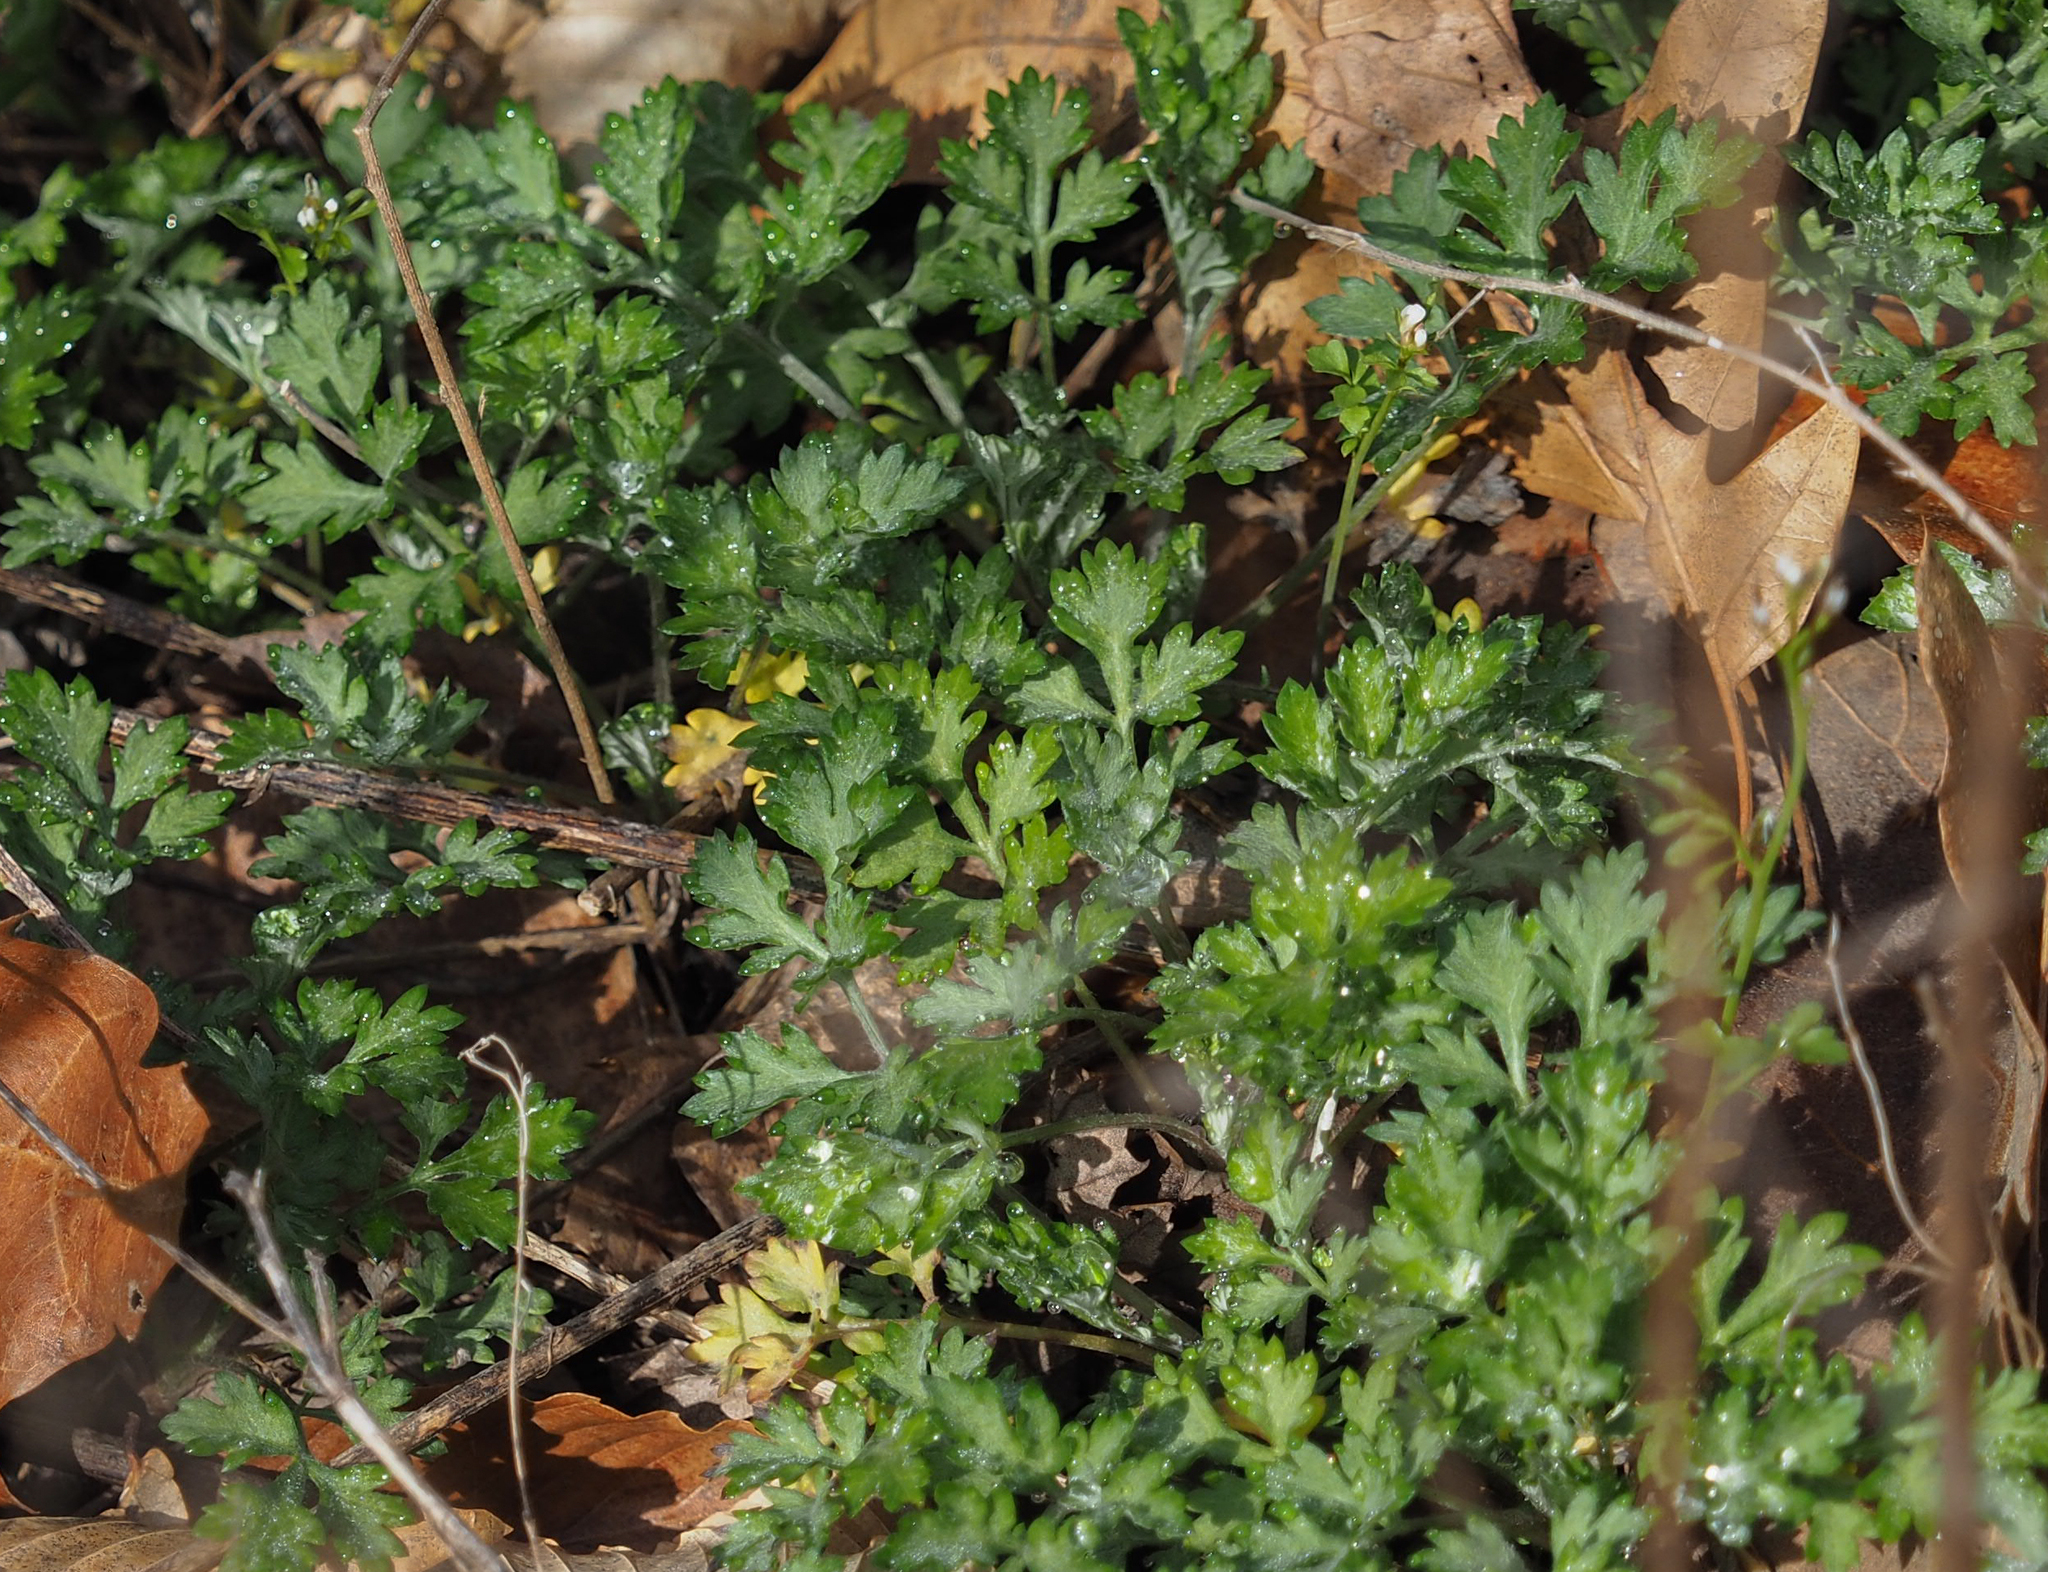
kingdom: Plantae
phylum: Tracheophyta
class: Magnoliopsida
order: Asterales
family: Asteraceae
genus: Artemisia
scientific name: Artemisia vulgaris
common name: Mugwort
